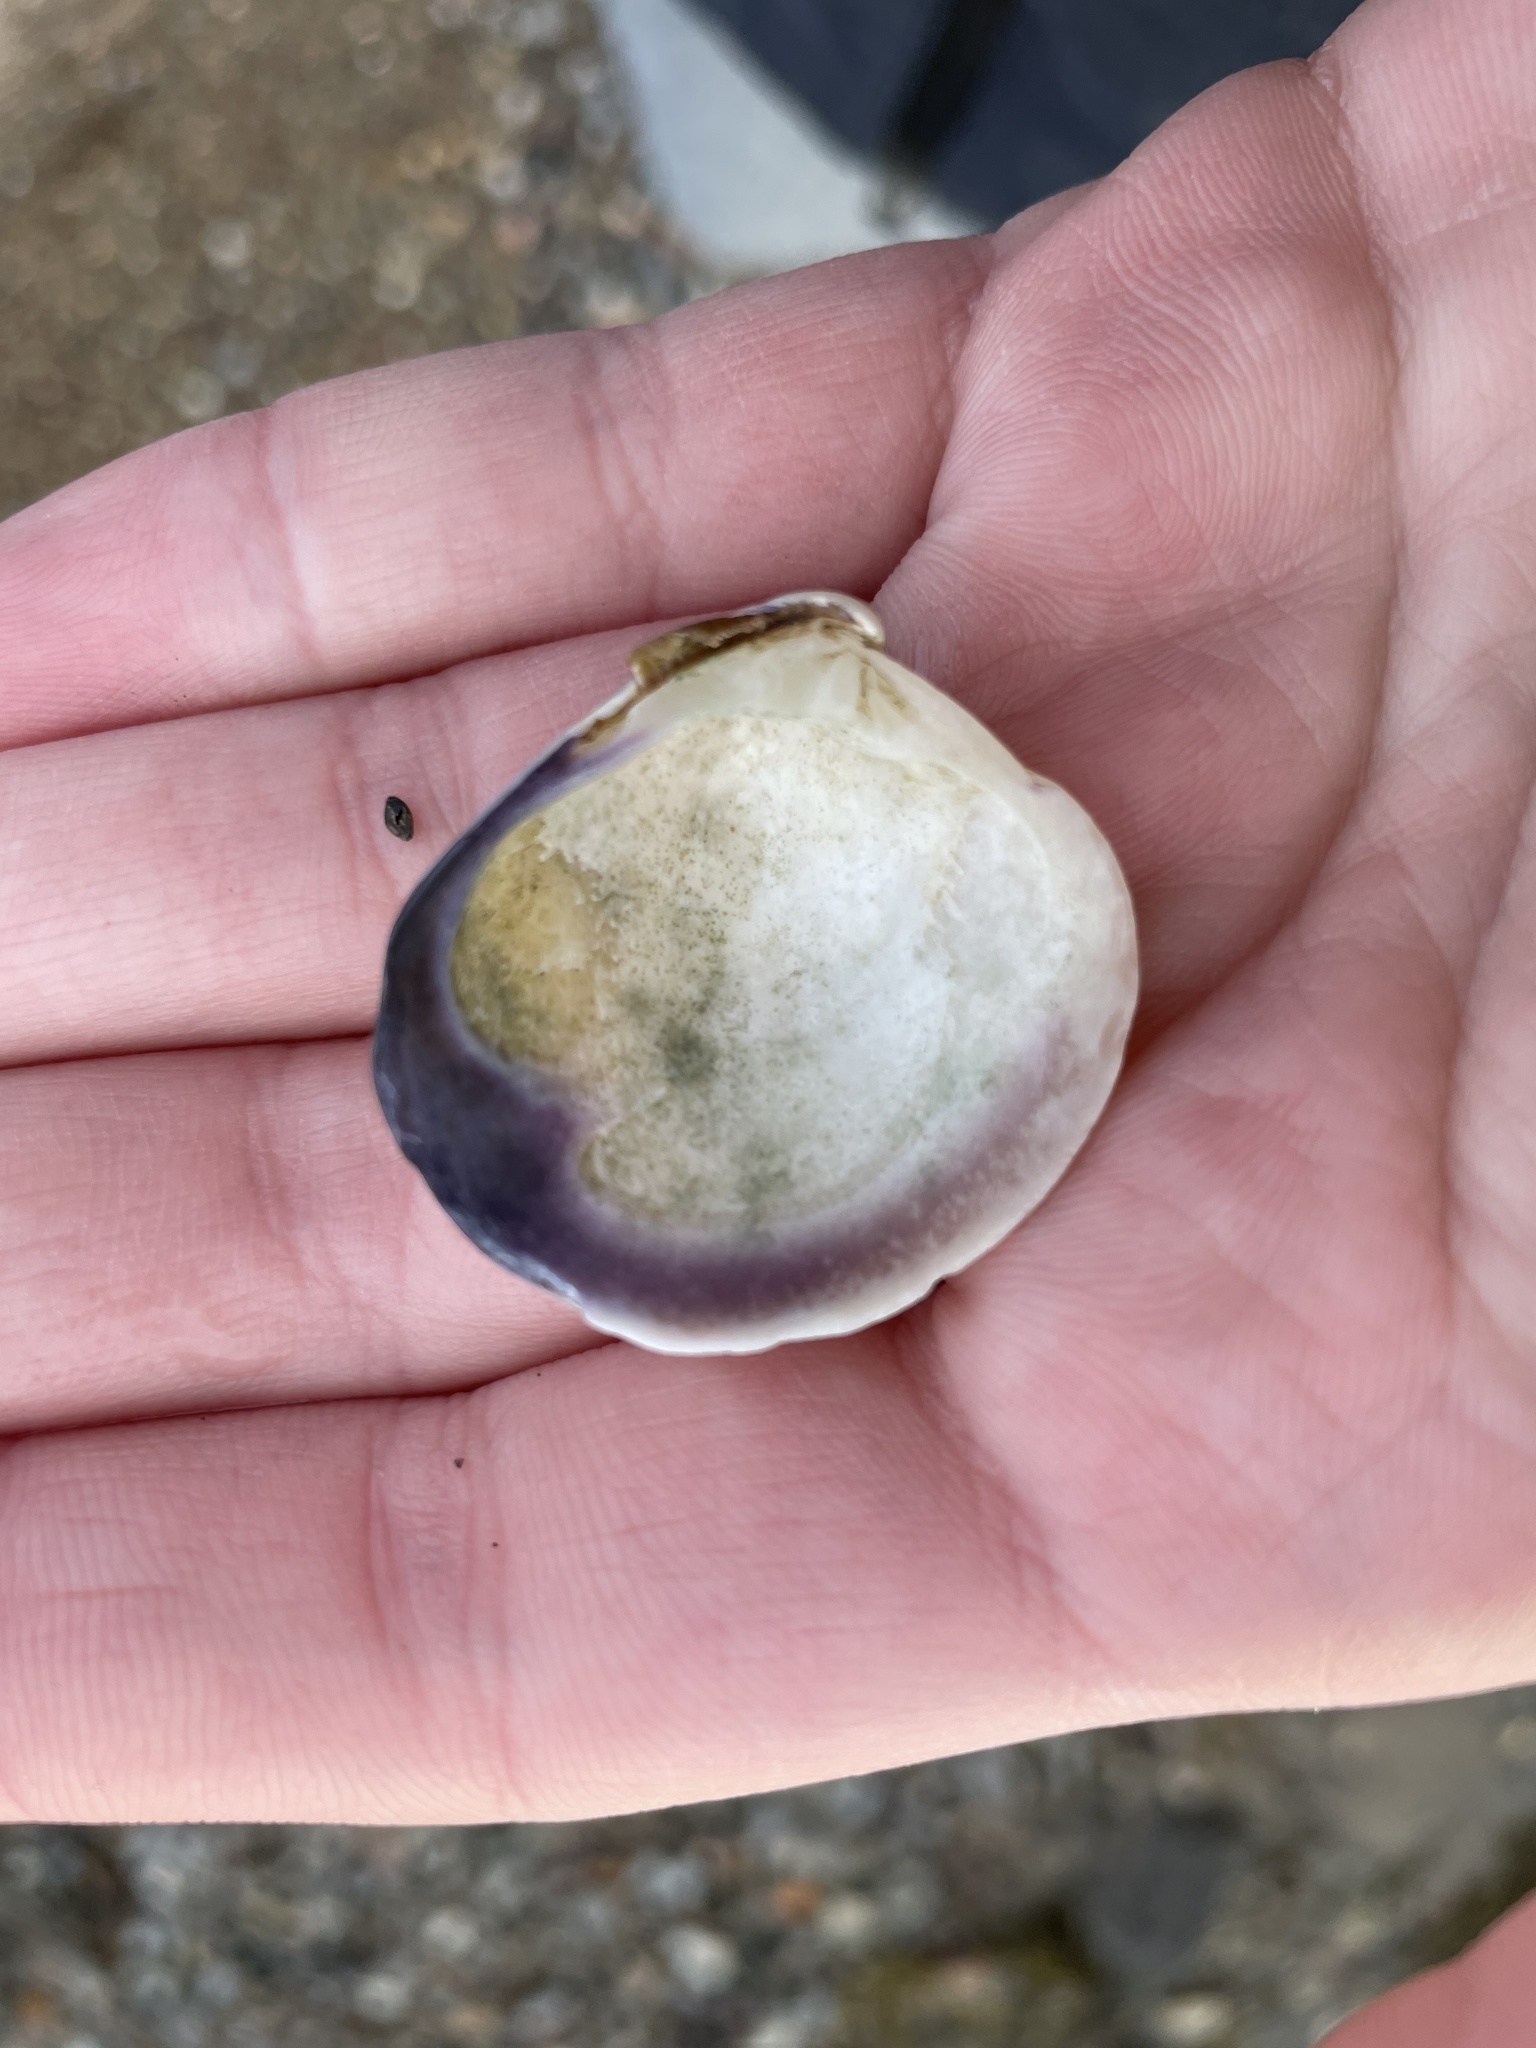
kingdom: Animalia
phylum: Mollusca
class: Bivalvia
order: Venerida
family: Veneridae
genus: Mercenaria
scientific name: Mercenaria mercenaria
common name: American hard-shelled clam
